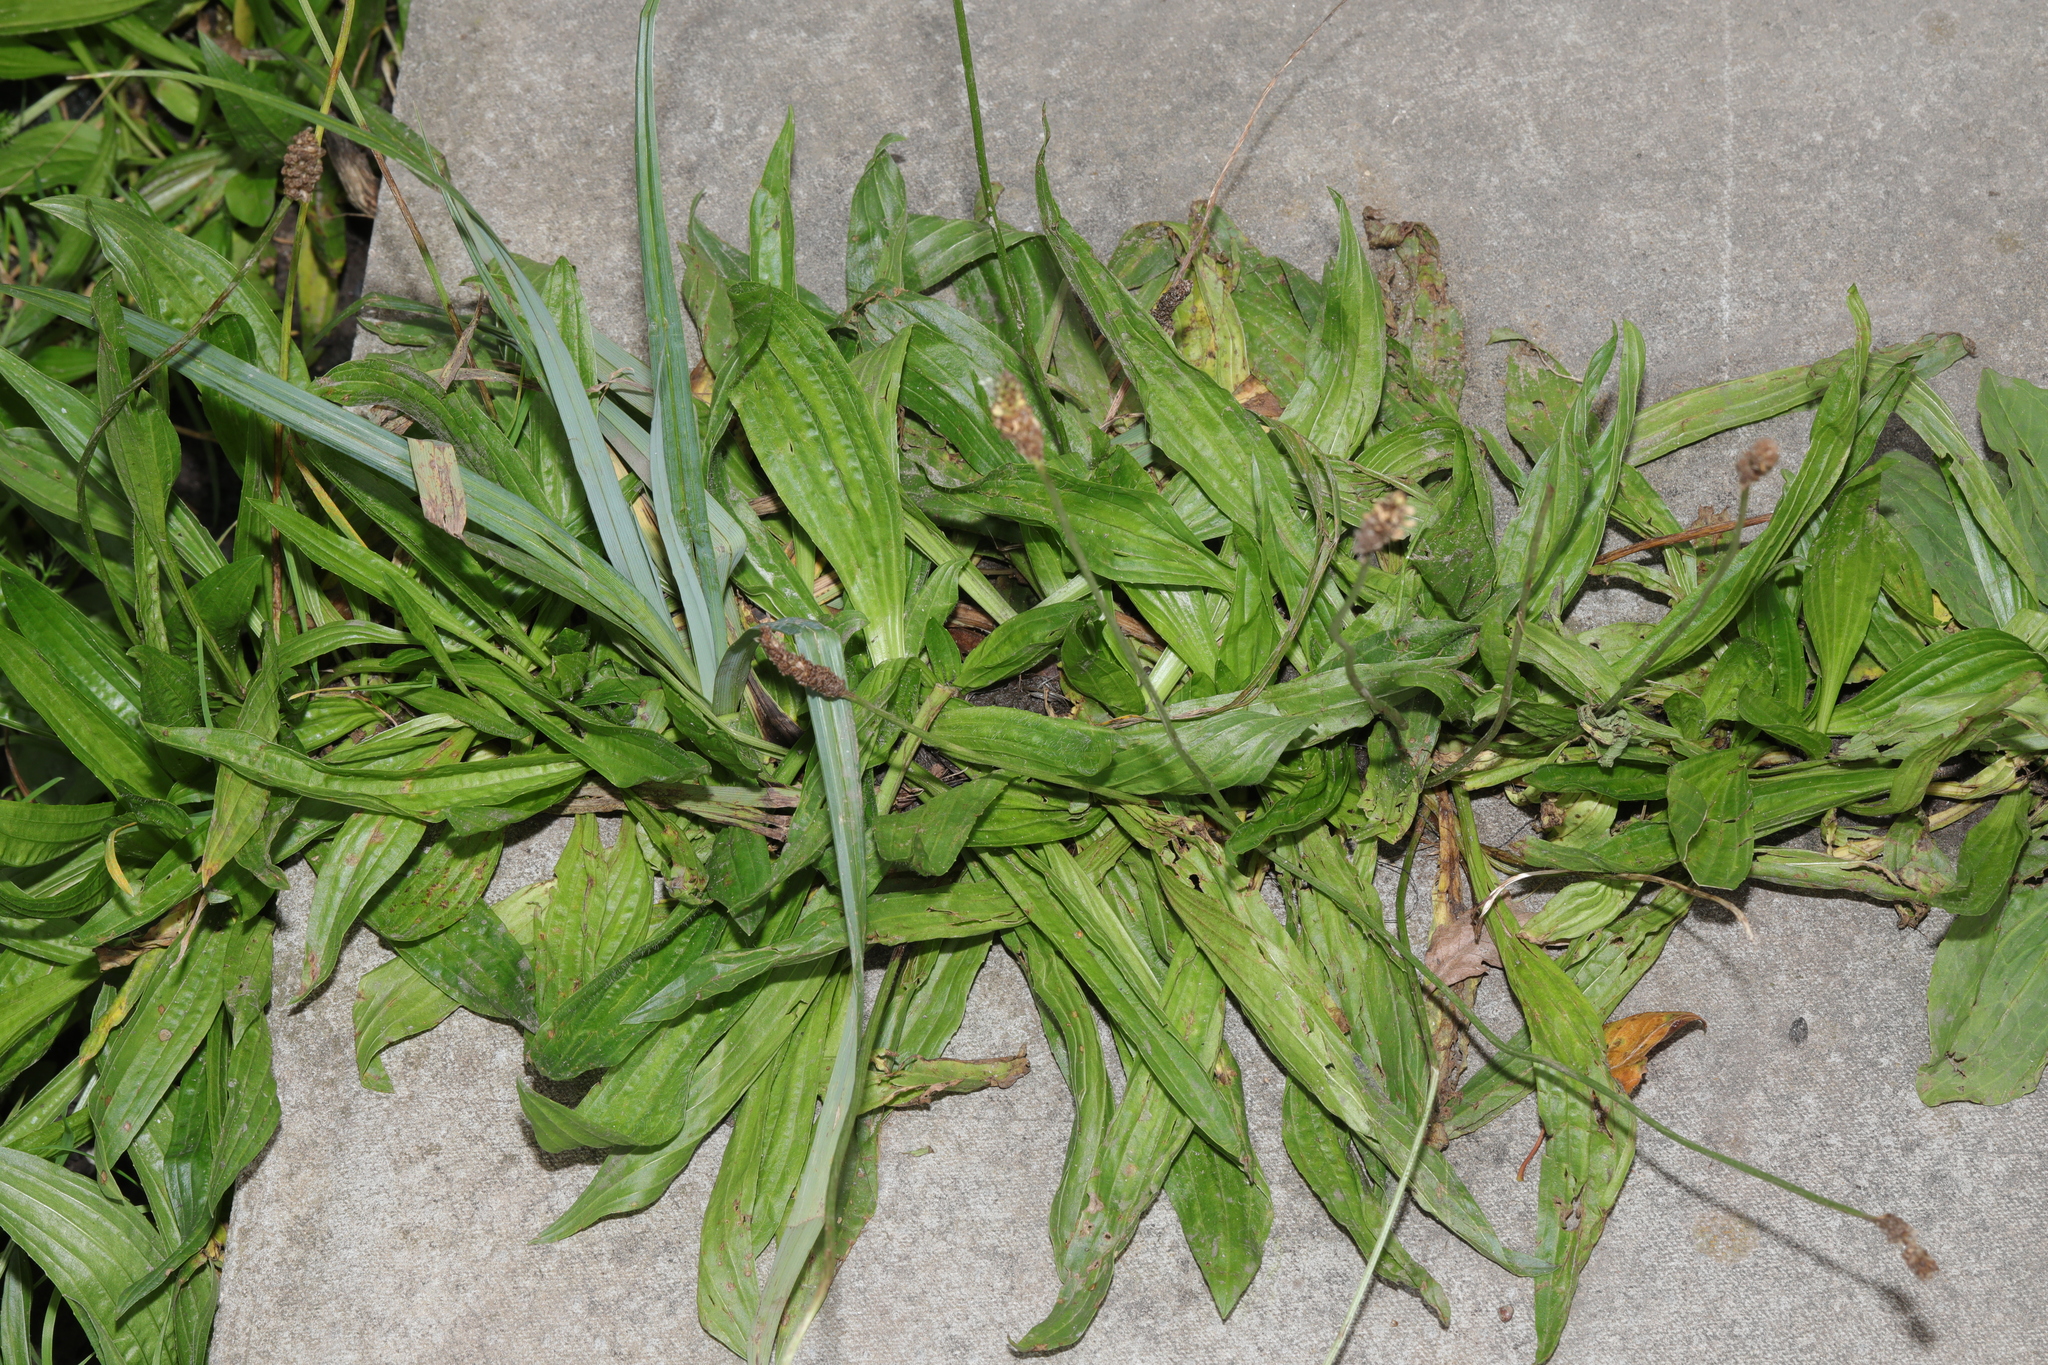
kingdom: Plantae
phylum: Tracheophyta
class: Magnoliopsida
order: Lamiales
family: Plantaginaceae
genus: Plantago
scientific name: Plantago lanceolata
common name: Ribwort plantain
